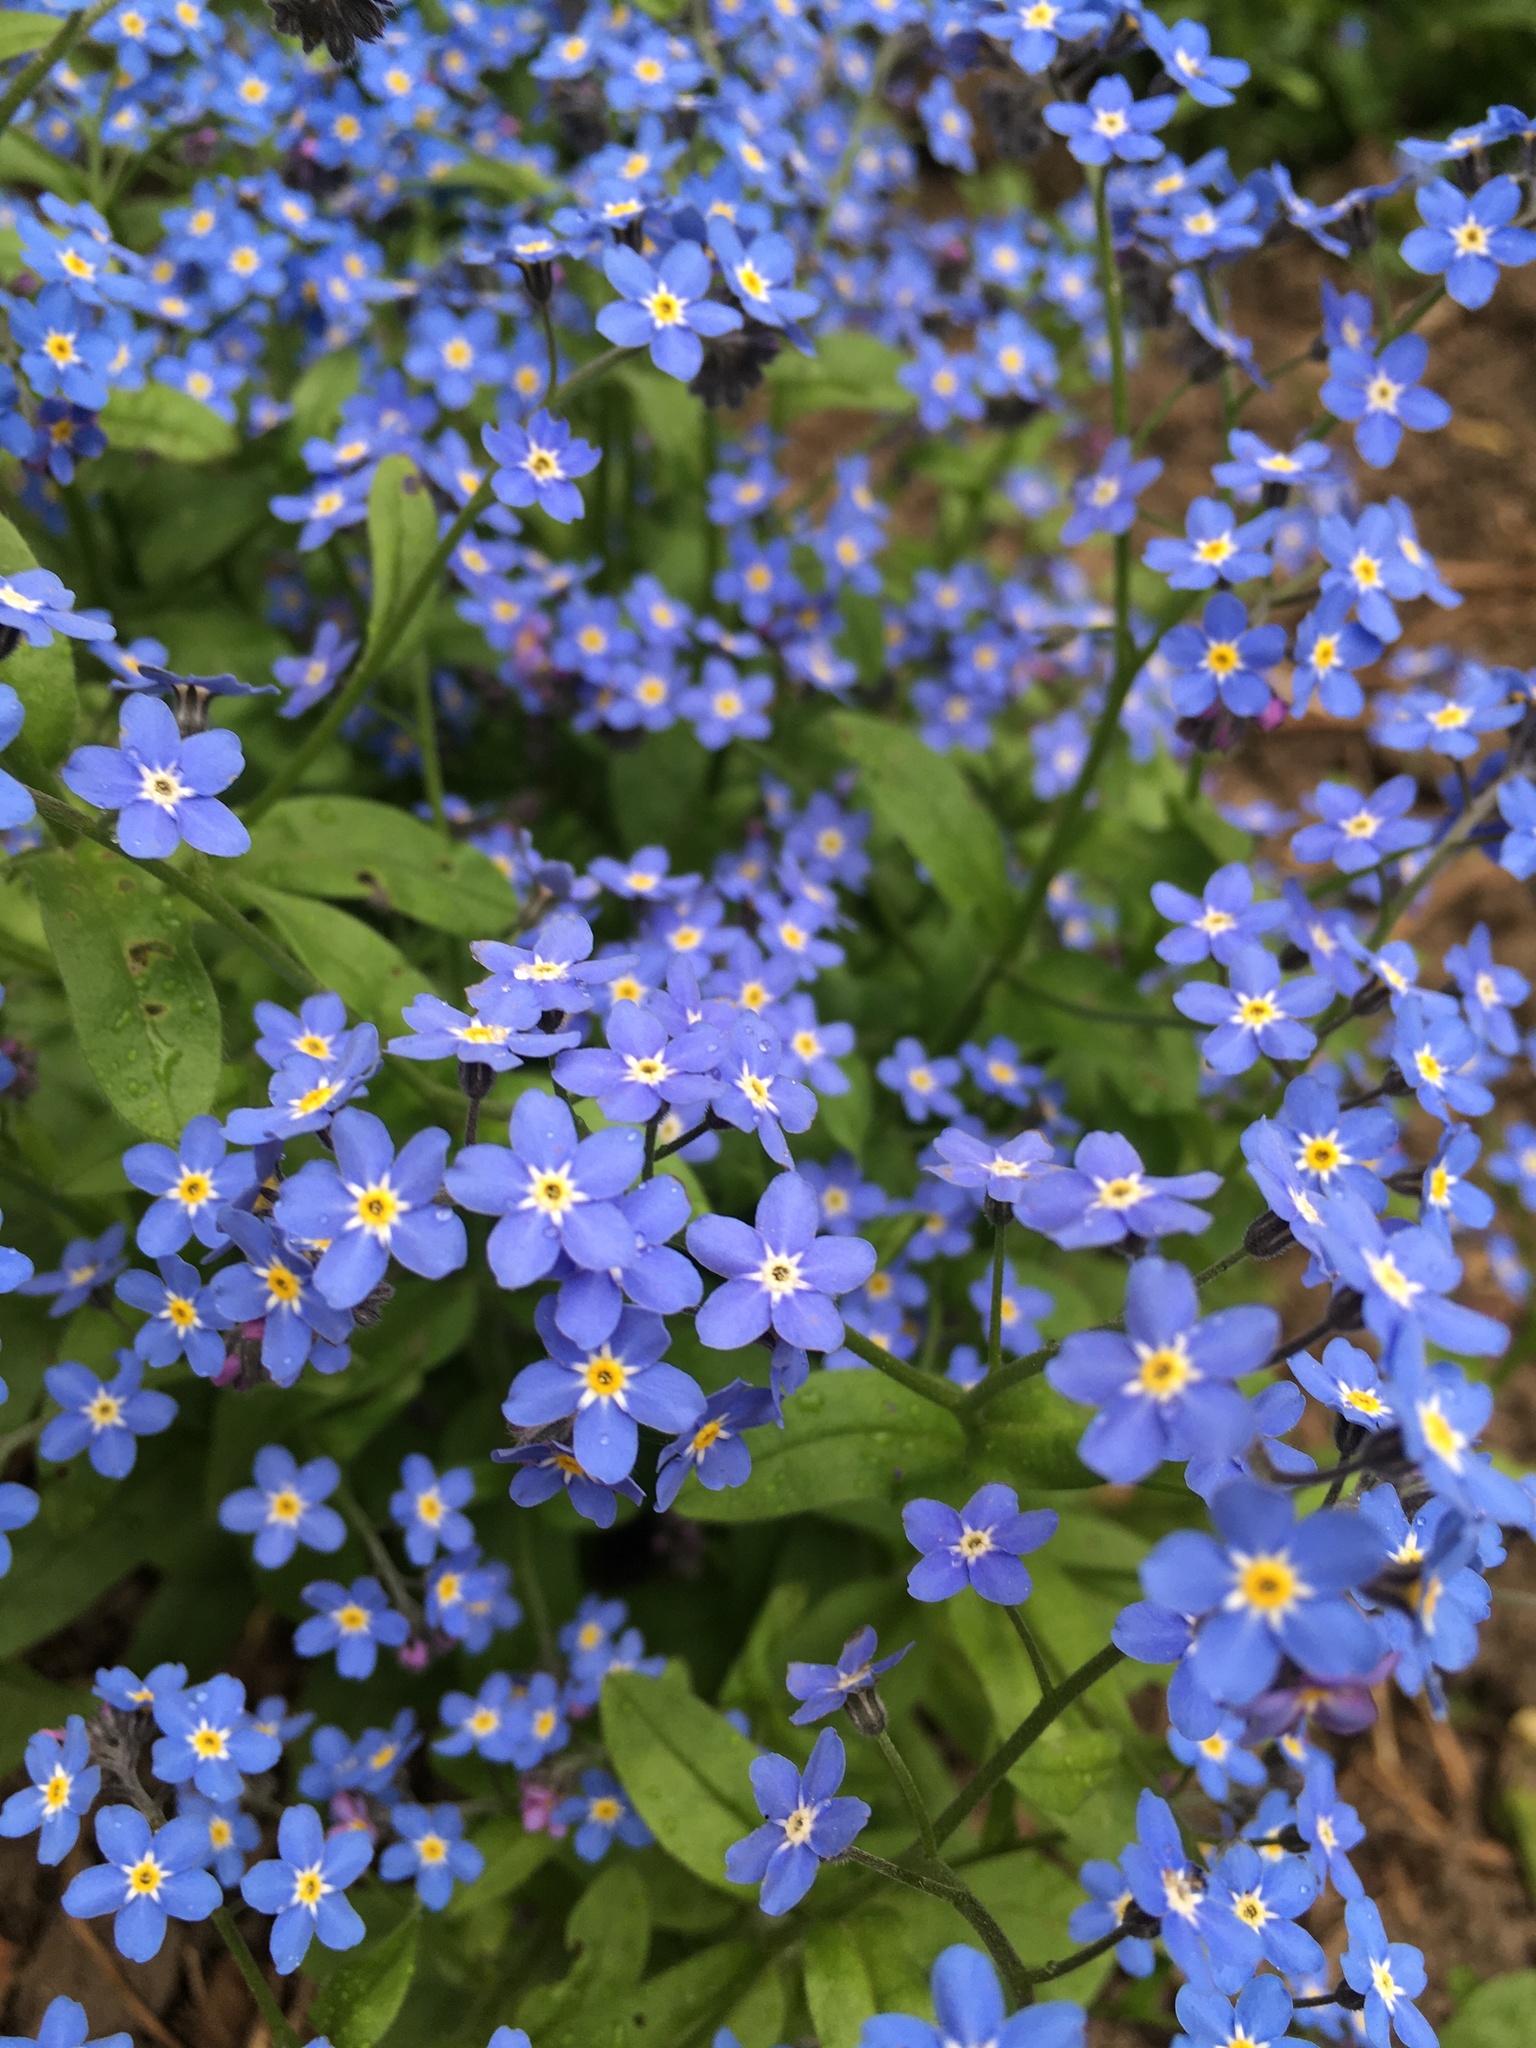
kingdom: Plantae
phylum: Tracheophyta
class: Magnoliopsida
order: Boraginales
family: Boraginaceae
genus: Myosotis
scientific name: Myosotis sylvatica
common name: Wood forget-me-not
